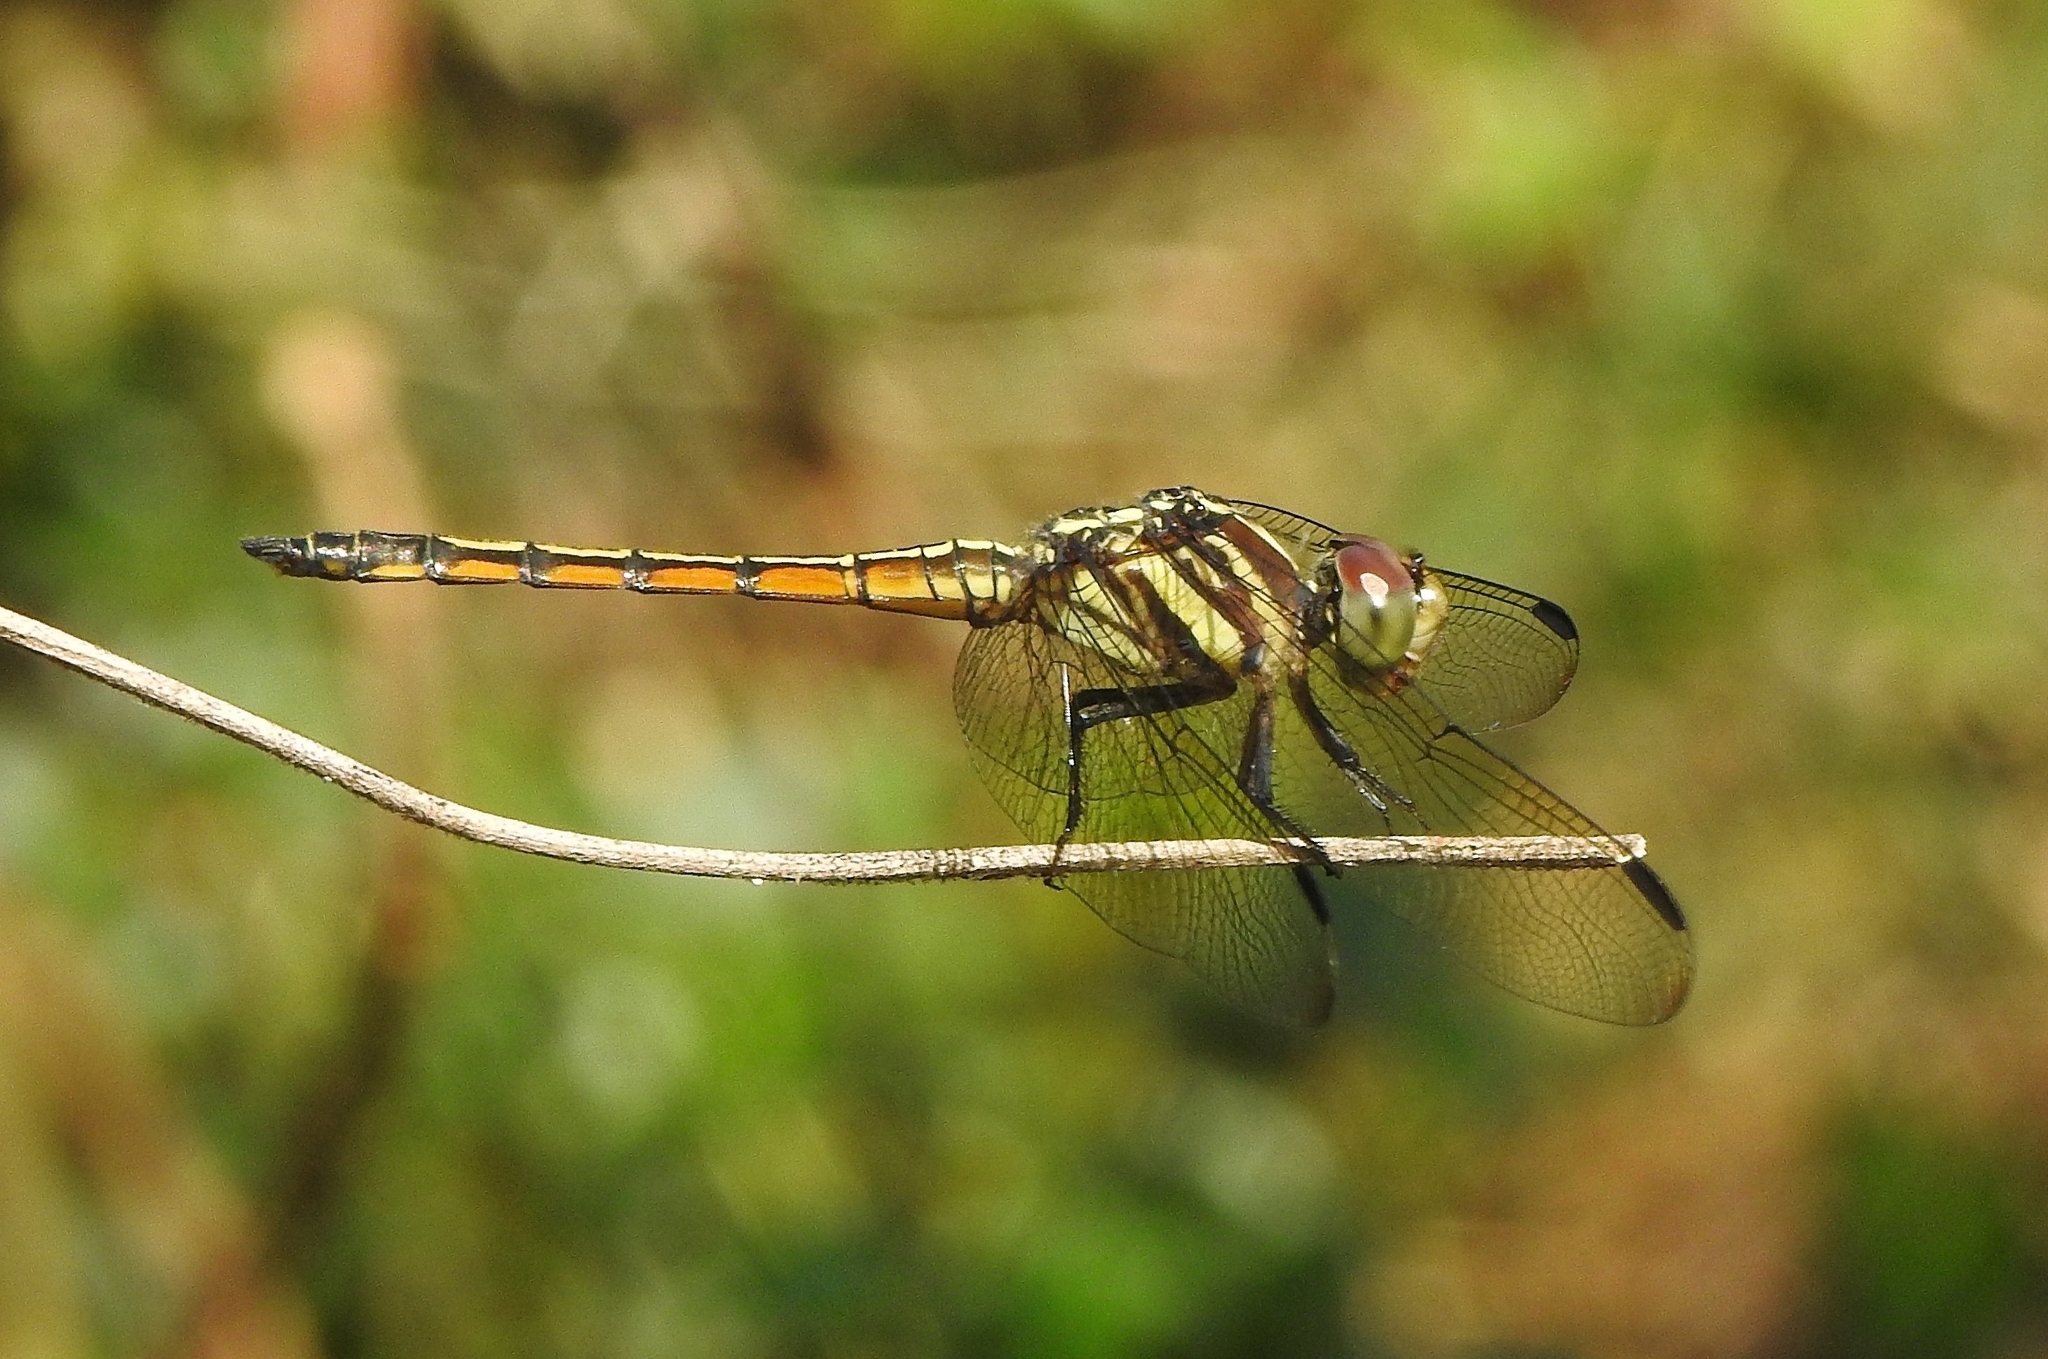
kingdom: Animalia
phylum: Arthropoda
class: Insecta
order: Odonata
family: Libellulidae
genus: Potamarcha
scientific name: Potamarcha congener
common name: Blue chaser
